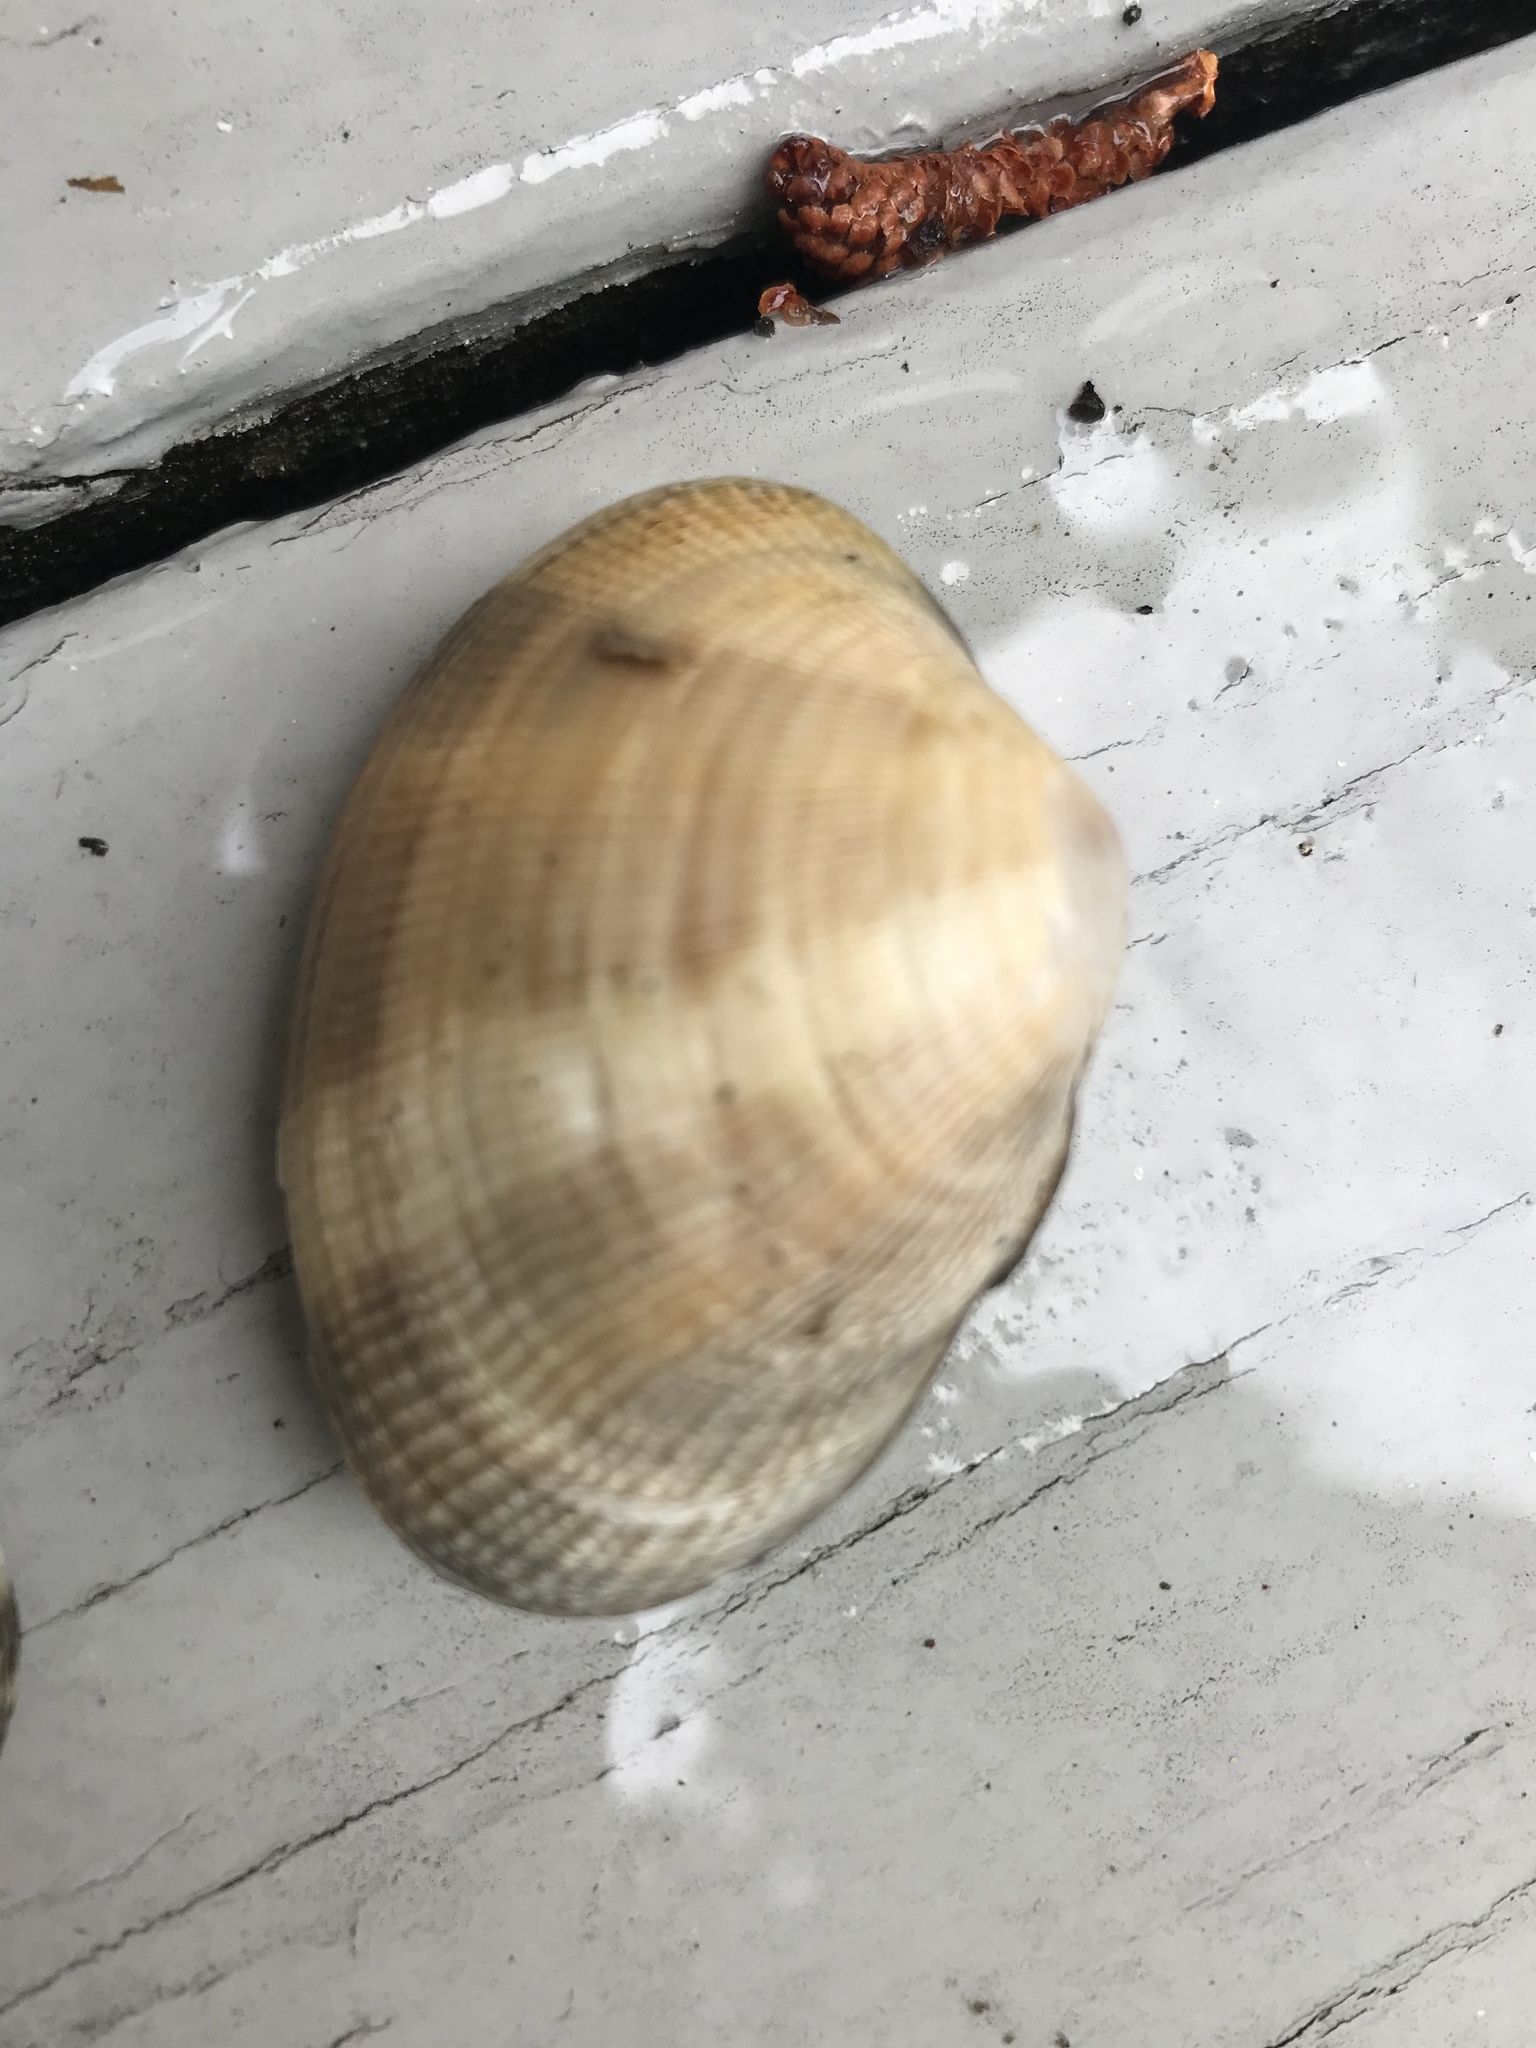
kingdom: Animalia
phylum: Mollusca
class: Bivalvia
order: Venerida
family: Veneridae
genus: Ruditapes
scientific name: Ruditapes philippinarum
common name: Manila clam
